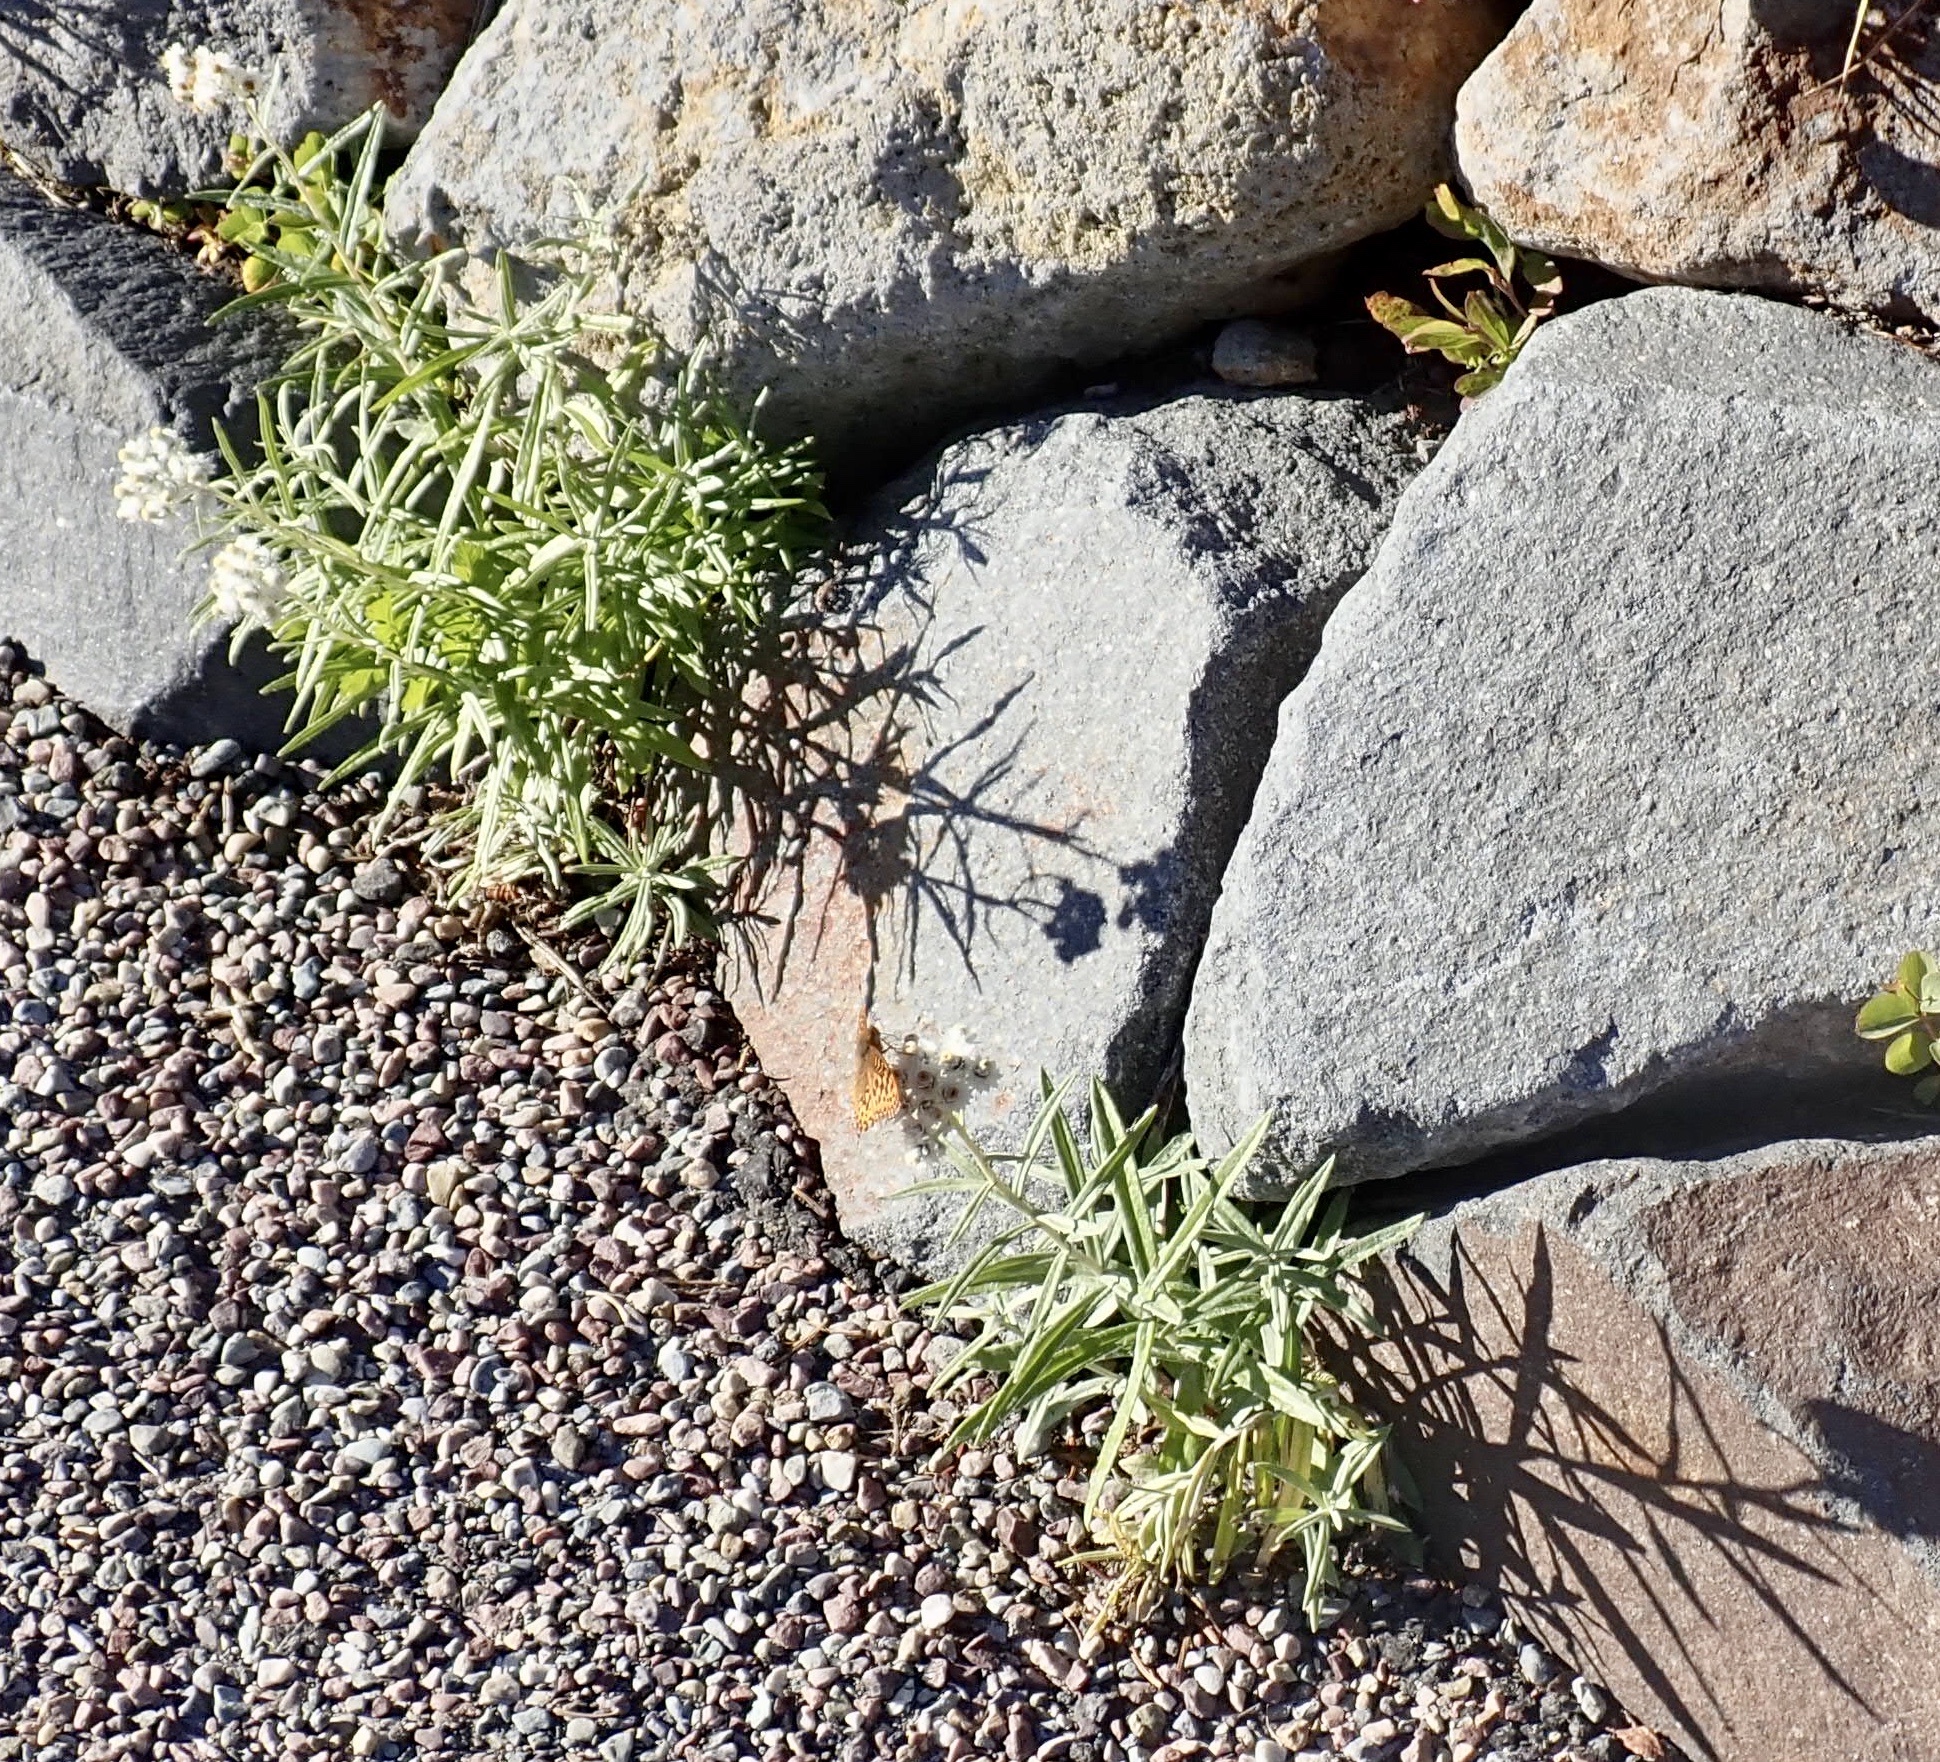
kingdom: Plantae
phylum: Tracheophyta
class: Magnoliopsida
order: Asterales
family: Asteraceae
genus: Anaphalis
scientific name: Anaphalis margaritacea
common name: Pearly everlasting
